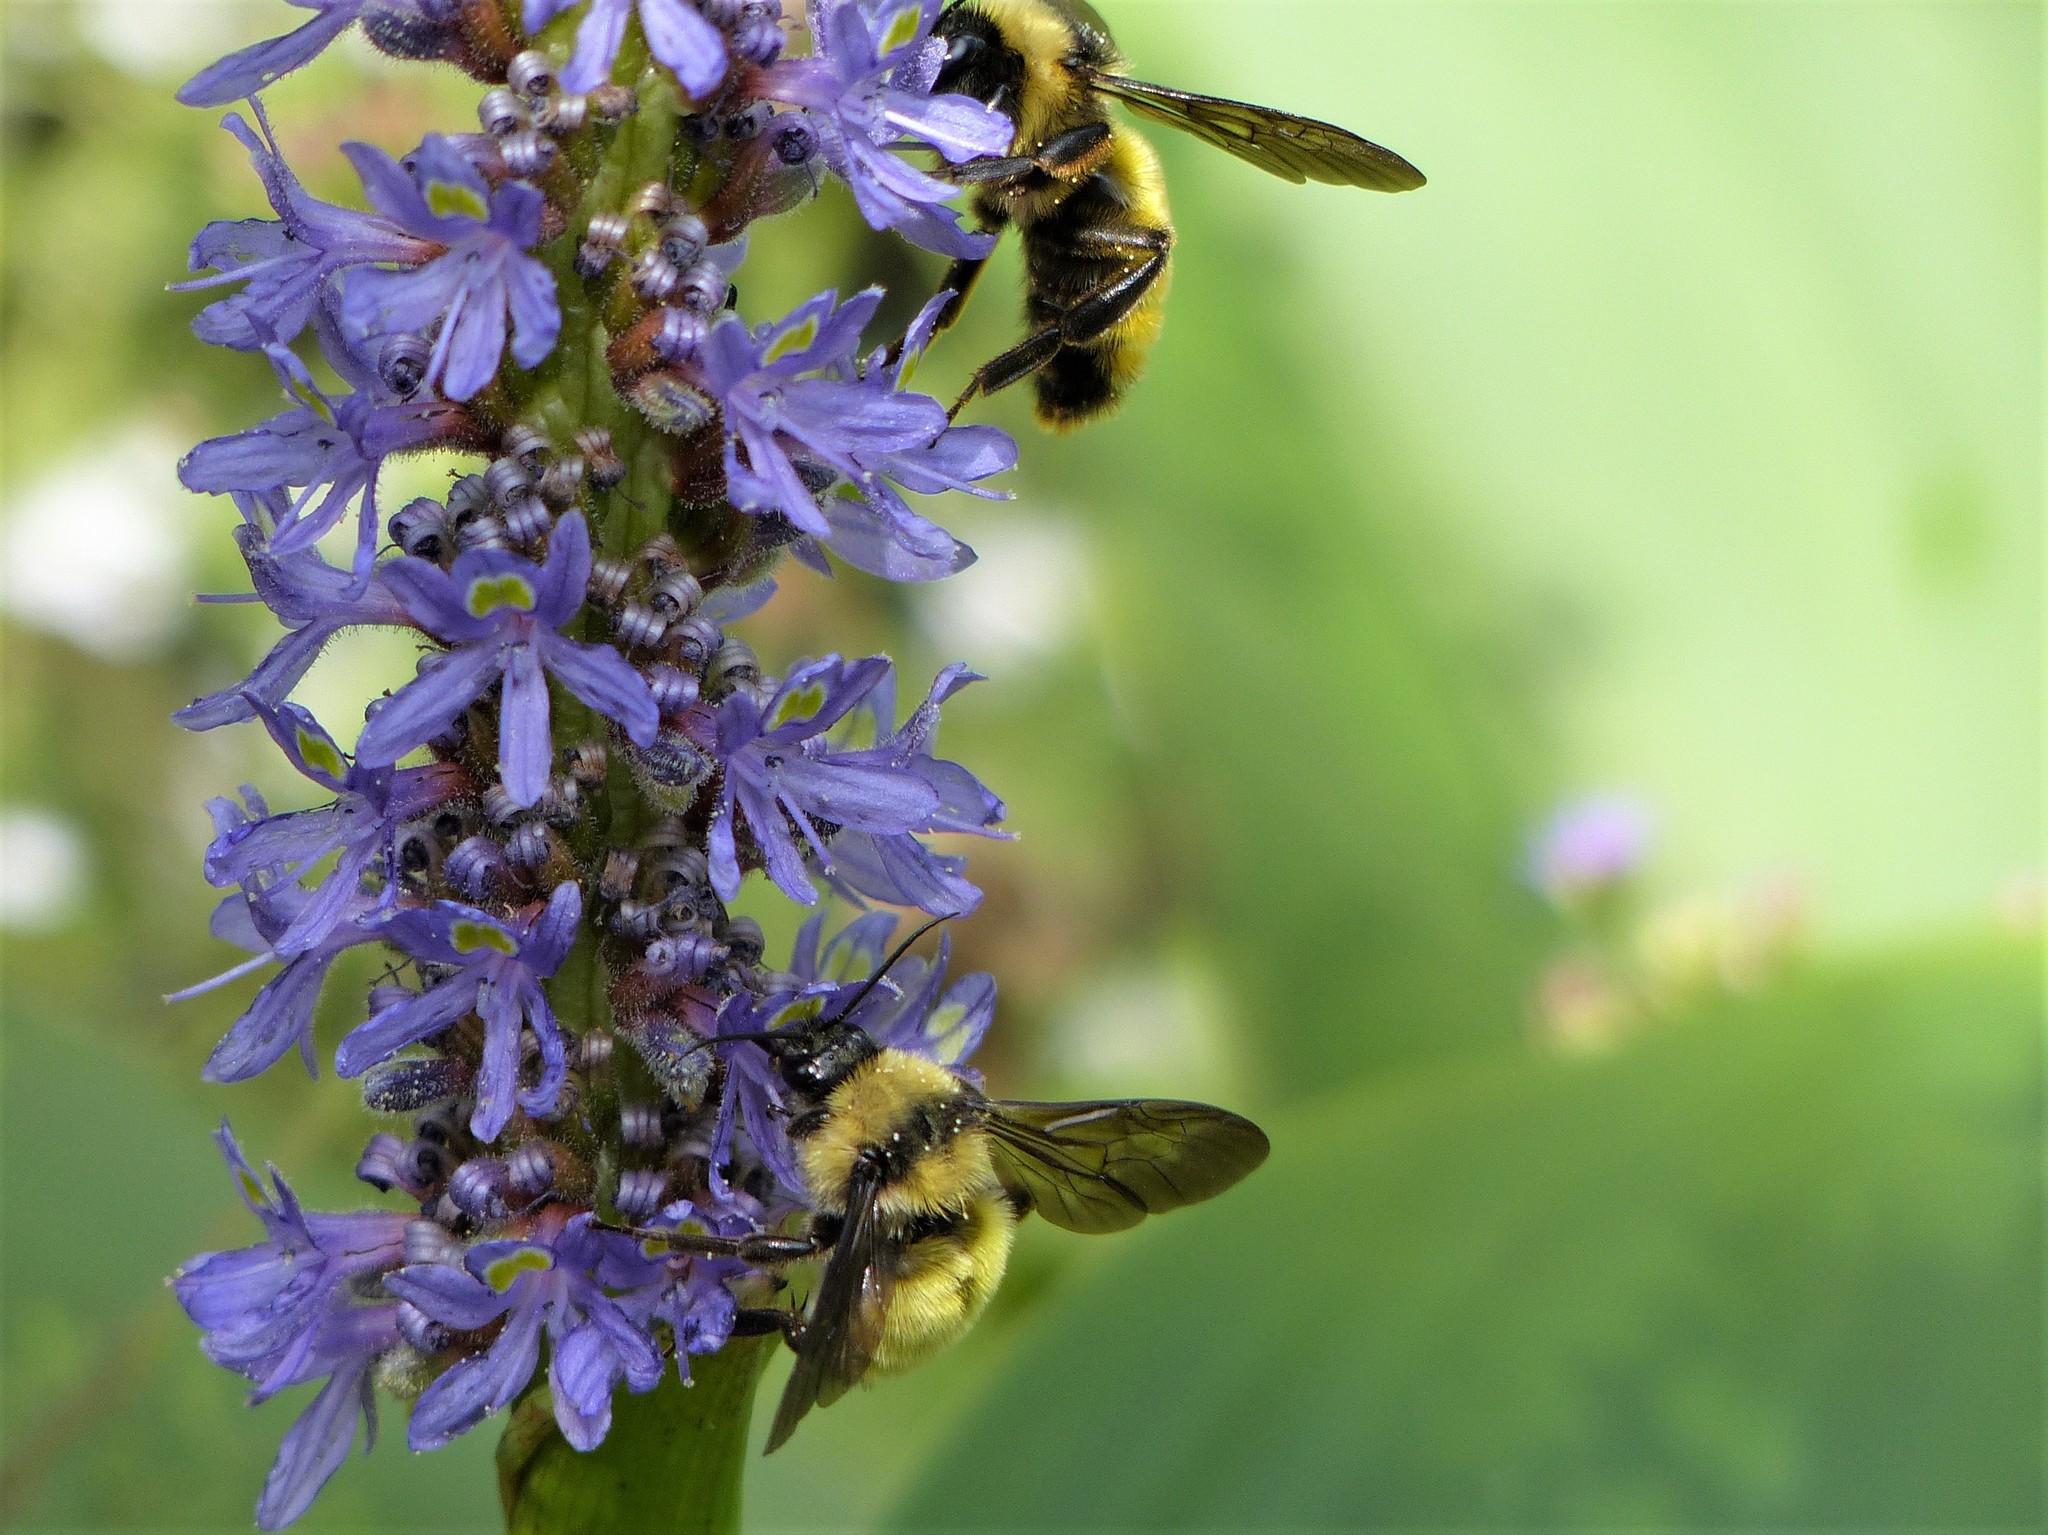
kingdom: Animalia
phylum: Arthropoda
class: Insecta
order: Hymenoptera
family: Apidae
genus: Bombus
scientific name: Bombus pensylvanicus
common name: Bumble bee
